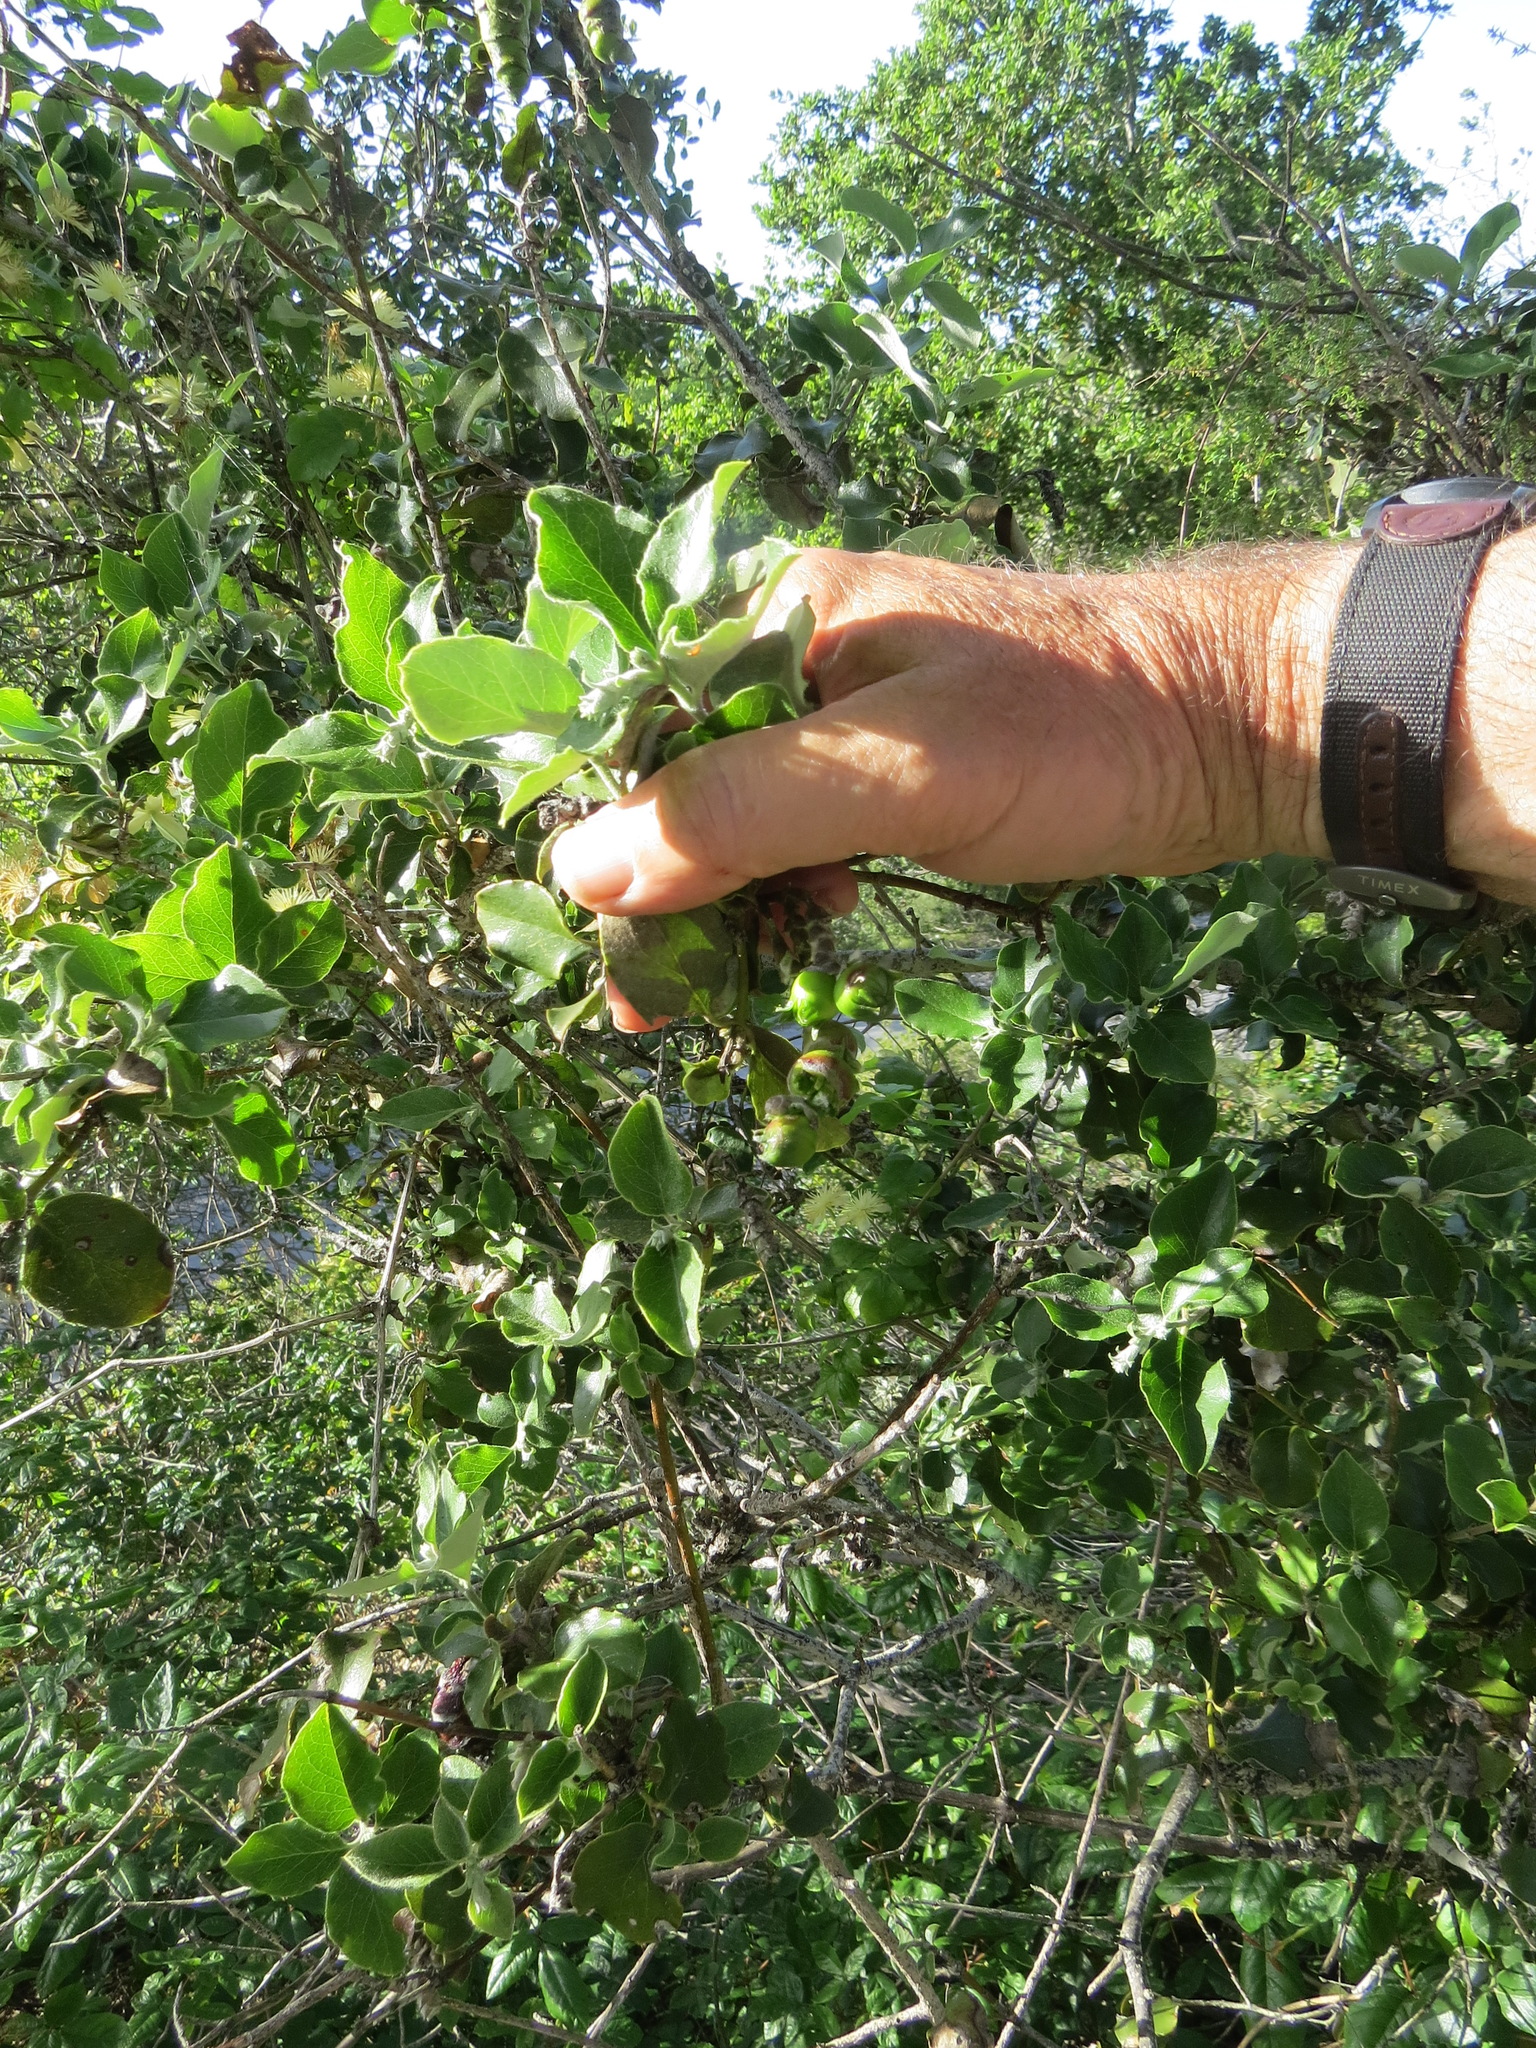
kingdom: Animalia
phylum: Arthropoda
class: Insecta
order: Diptera
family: Cecidomyiidae
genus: Asphondylia
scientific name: Asphondylia garryae
